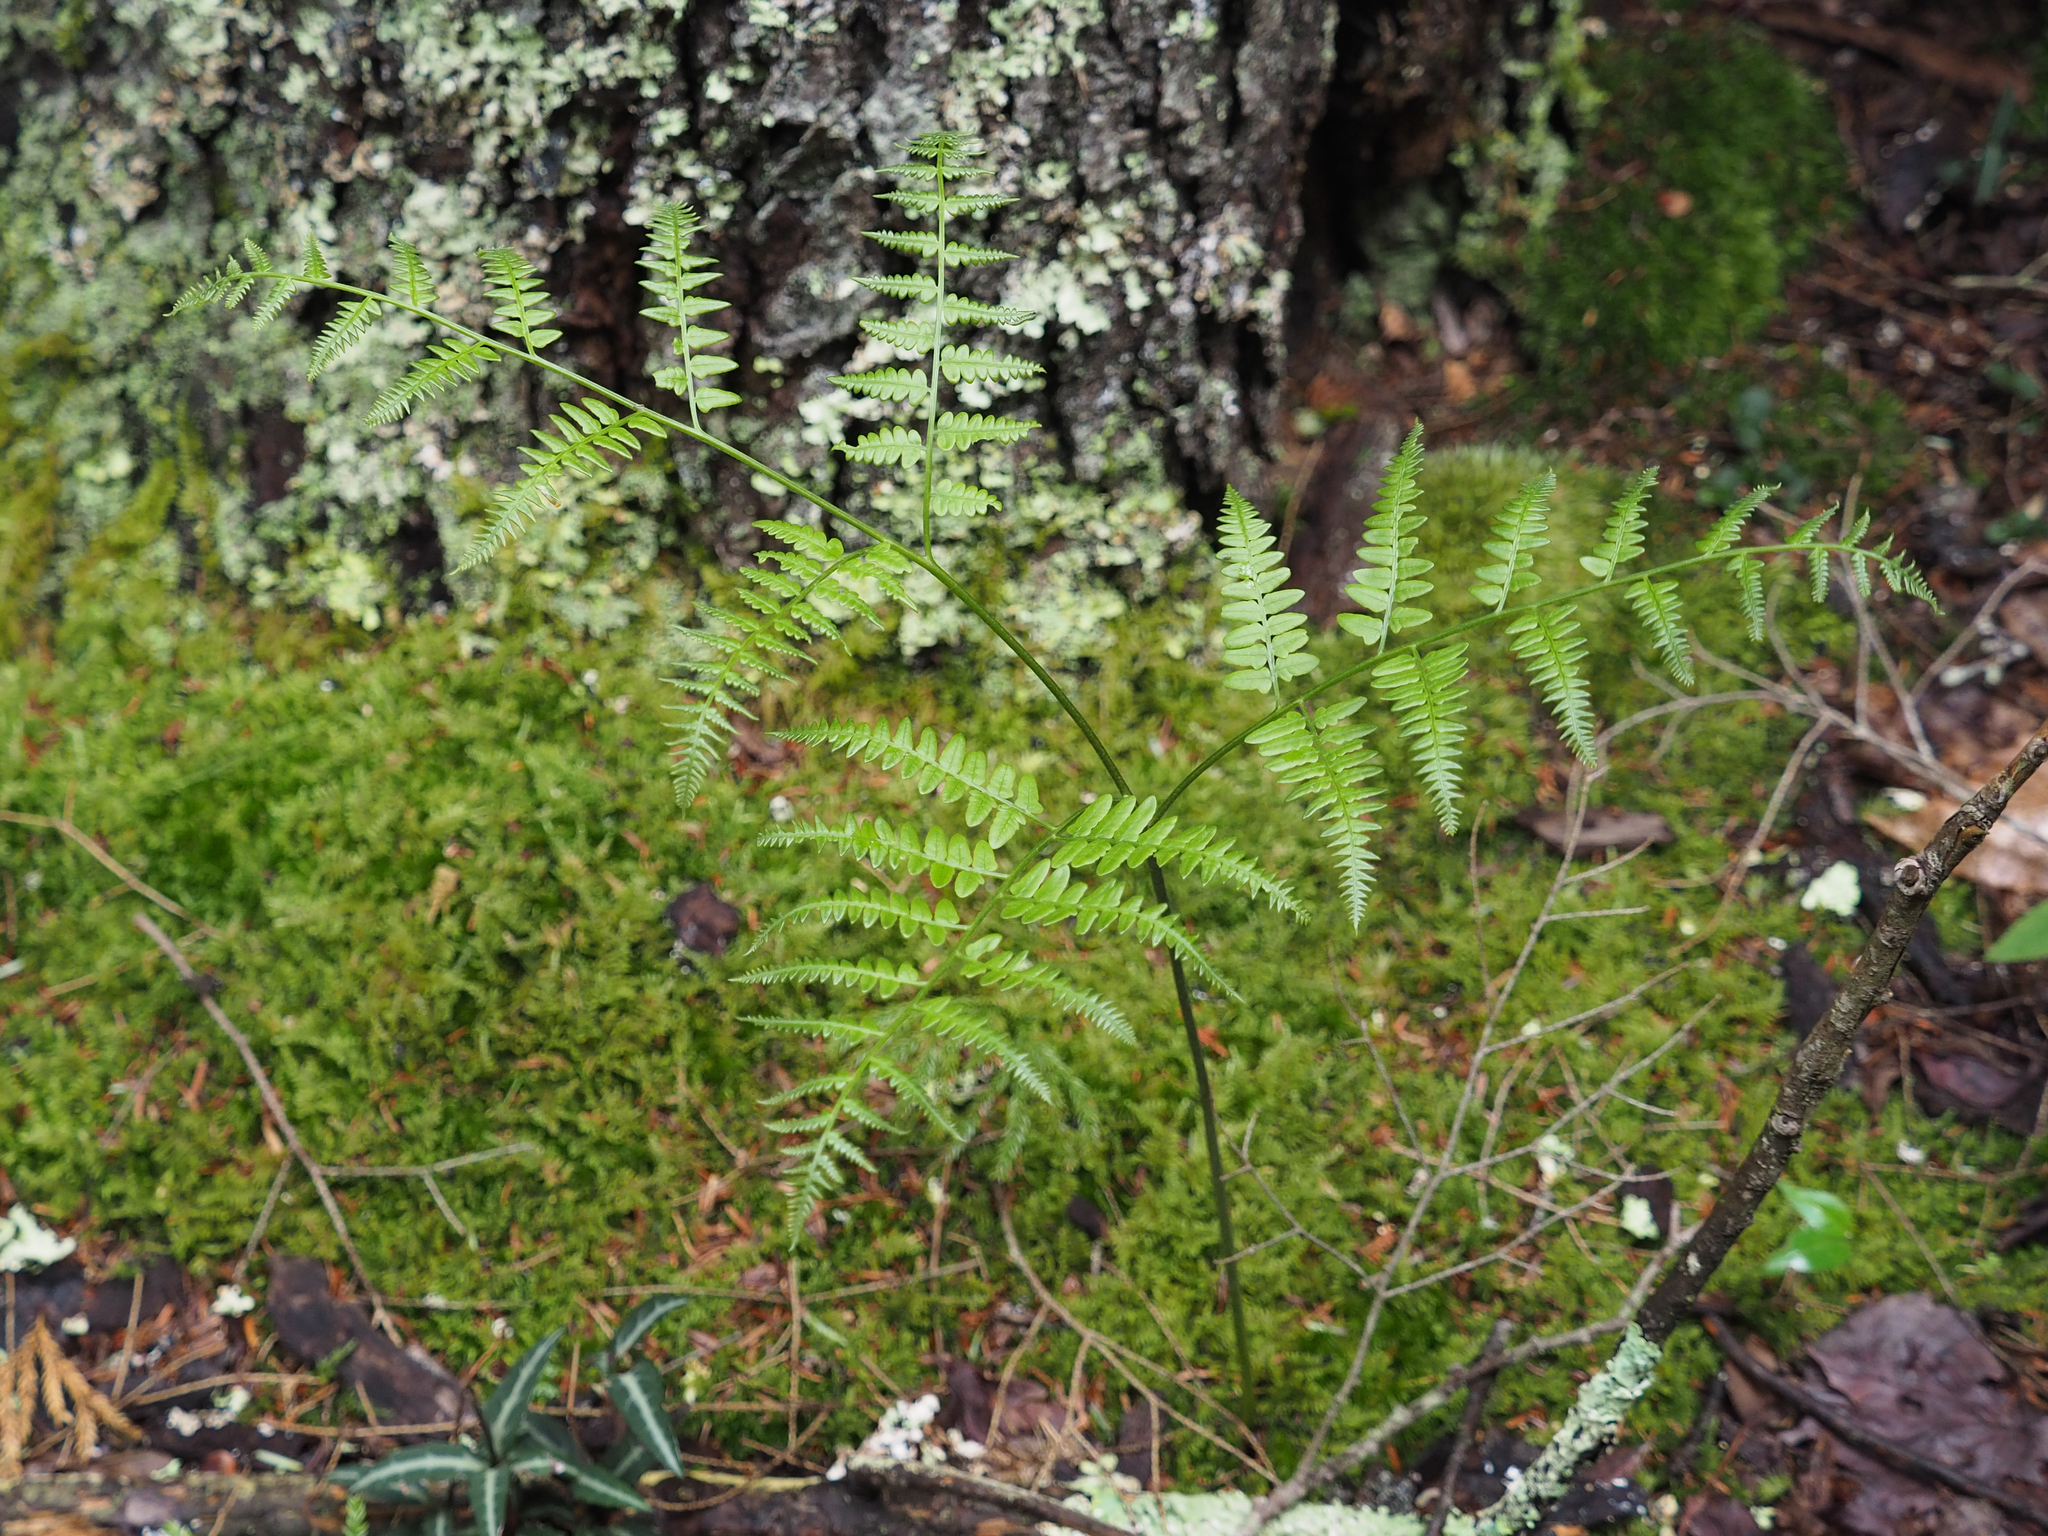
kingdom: Plantae
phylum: Tracheophyta
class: Polypodiopsida
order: Polypodiales
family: Dennstaedtiaceae
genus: Pteridium
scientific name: Pteridium aquilinum
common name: Bracken
